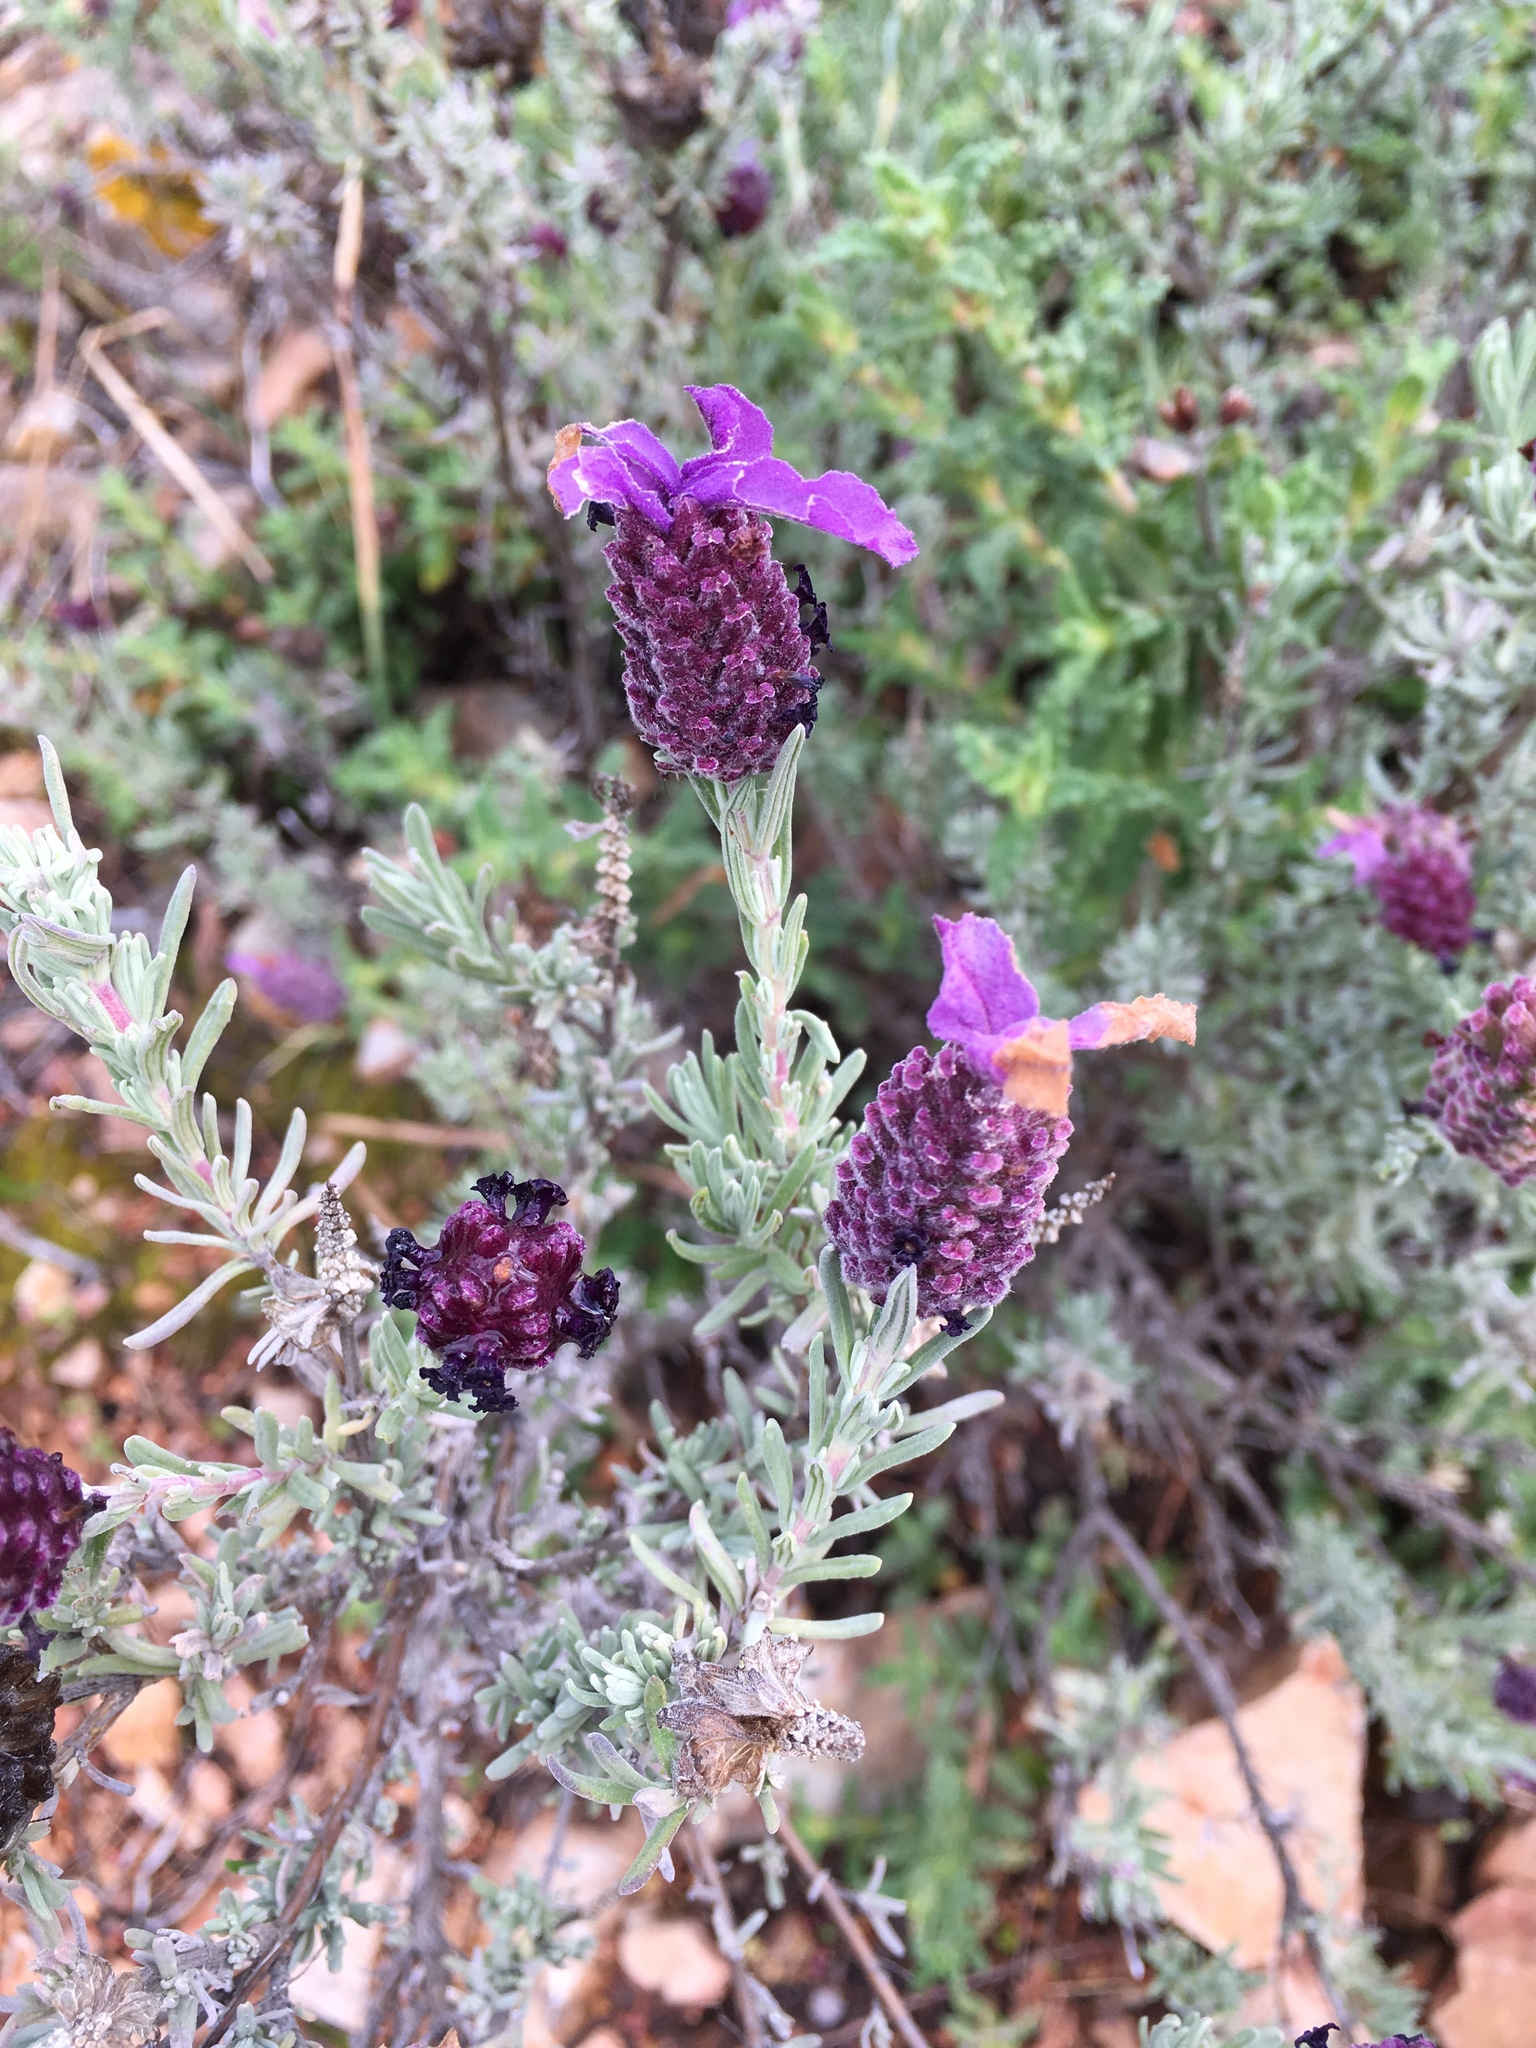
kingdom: Plantae
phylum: Tracheophyta
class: Magnoliopsida
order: Lamiales
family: Lamiaceae
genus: Lavandula
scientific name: Lavandula stoechas
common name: French lavender
